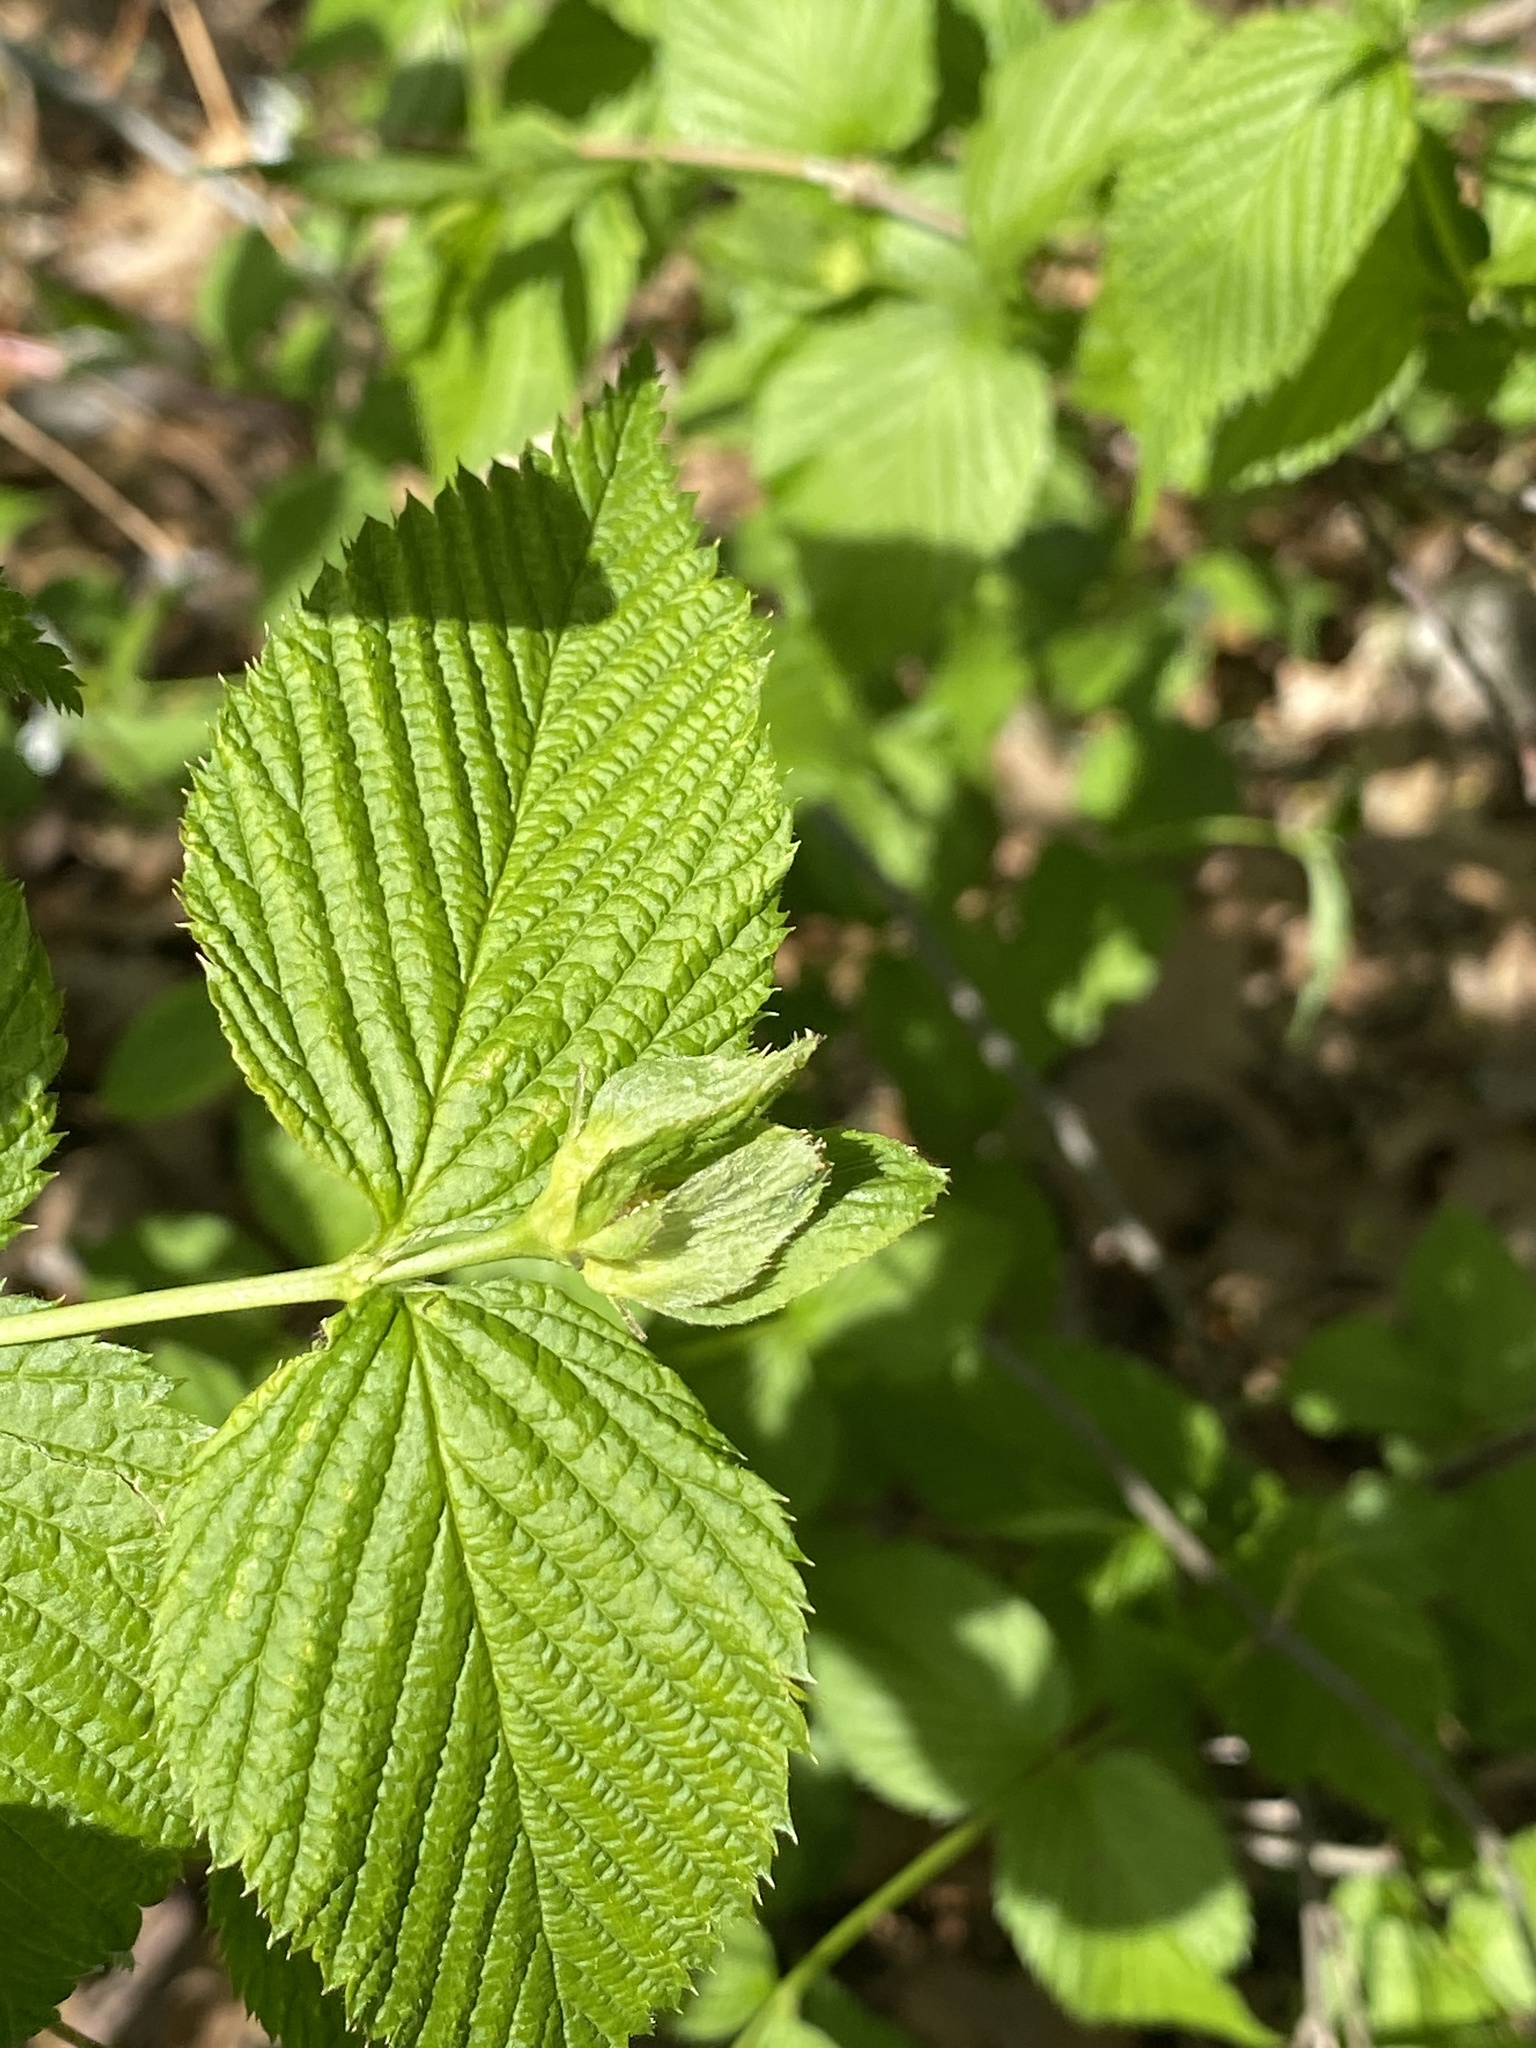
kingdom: Plantae
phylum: Tracheophyta
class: Magnoliopsida
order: Rosales
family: Rosaceae
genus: Rhodotypos
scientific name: Rhodotypos scandens
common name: Jetbead
